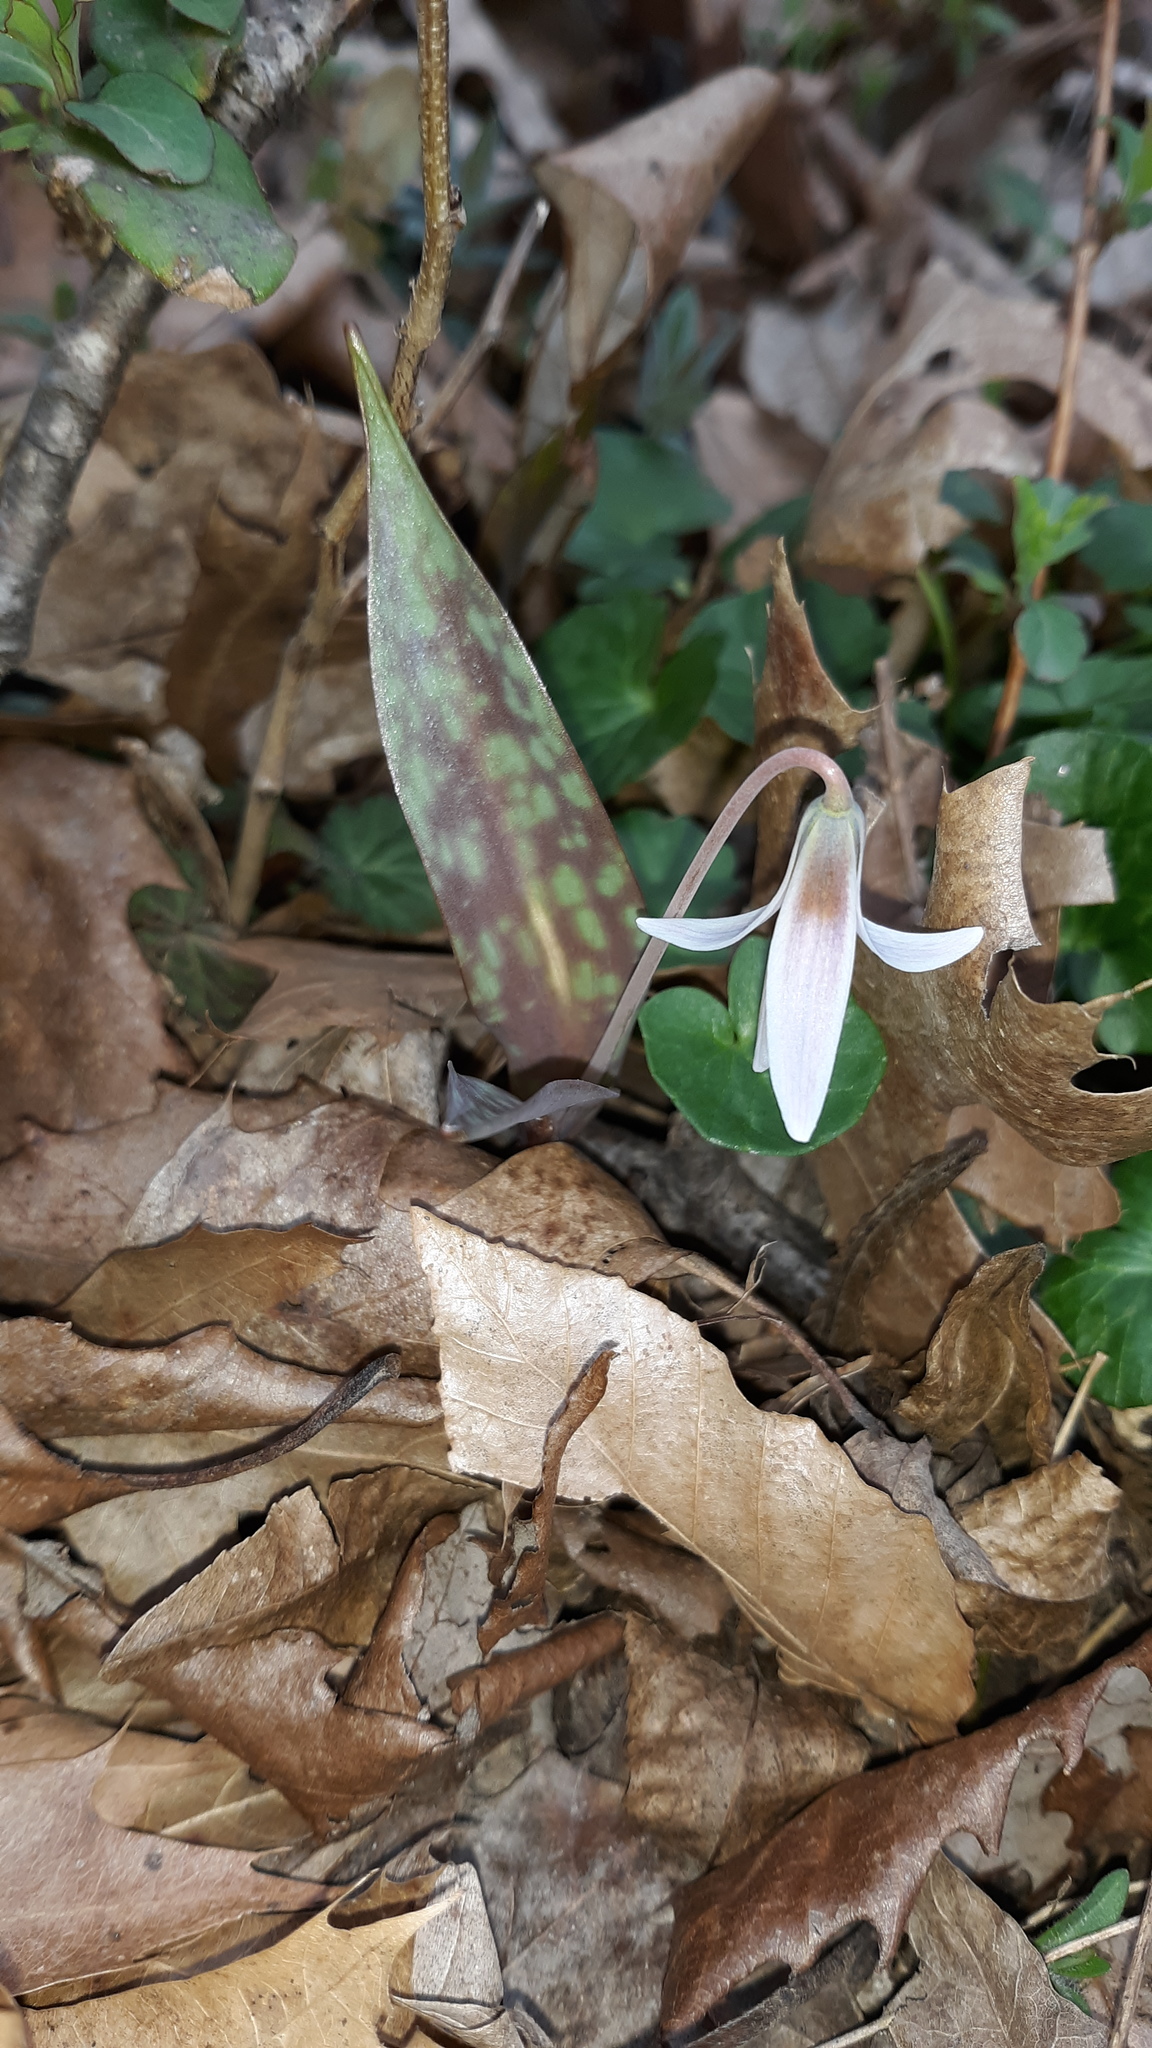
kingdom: Plantae
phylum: Tracheophyta
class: Liliopsida
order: Liliales
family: Liliaceae
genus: Erythronium
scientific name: Erythronium albidum
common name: White trout-lily
